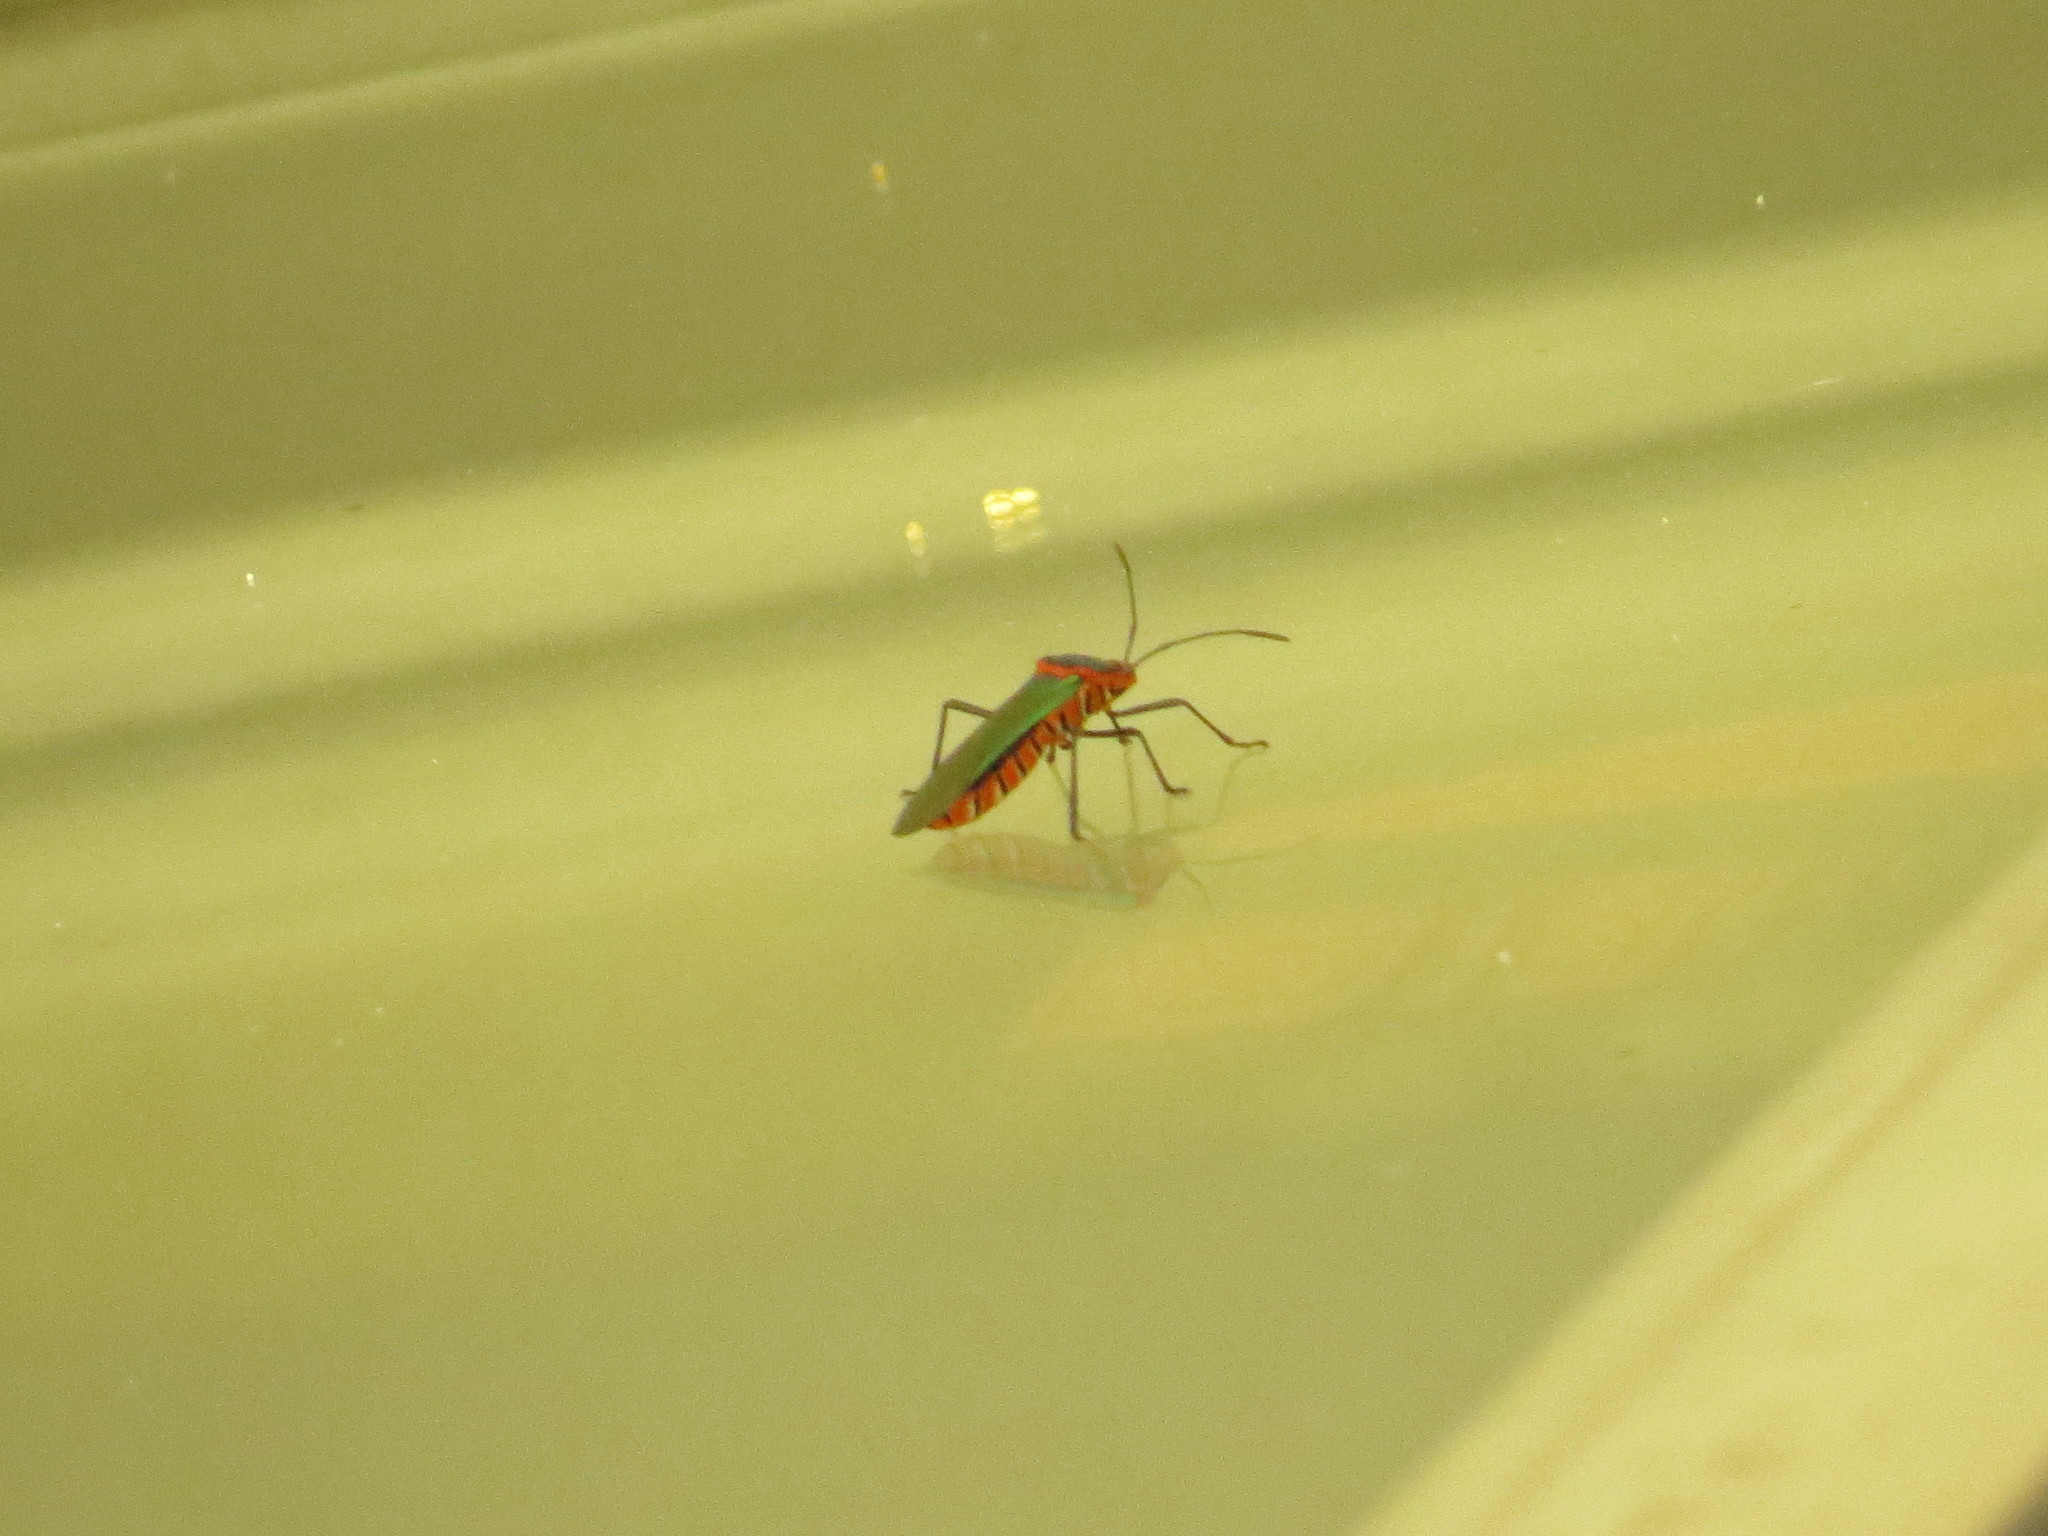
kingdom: Animalia
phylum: Arthropoda
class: Insecta
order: Hemiptera
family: Coreidae
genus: Sphictyrtus
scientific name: Sphictyrtus chrysis
